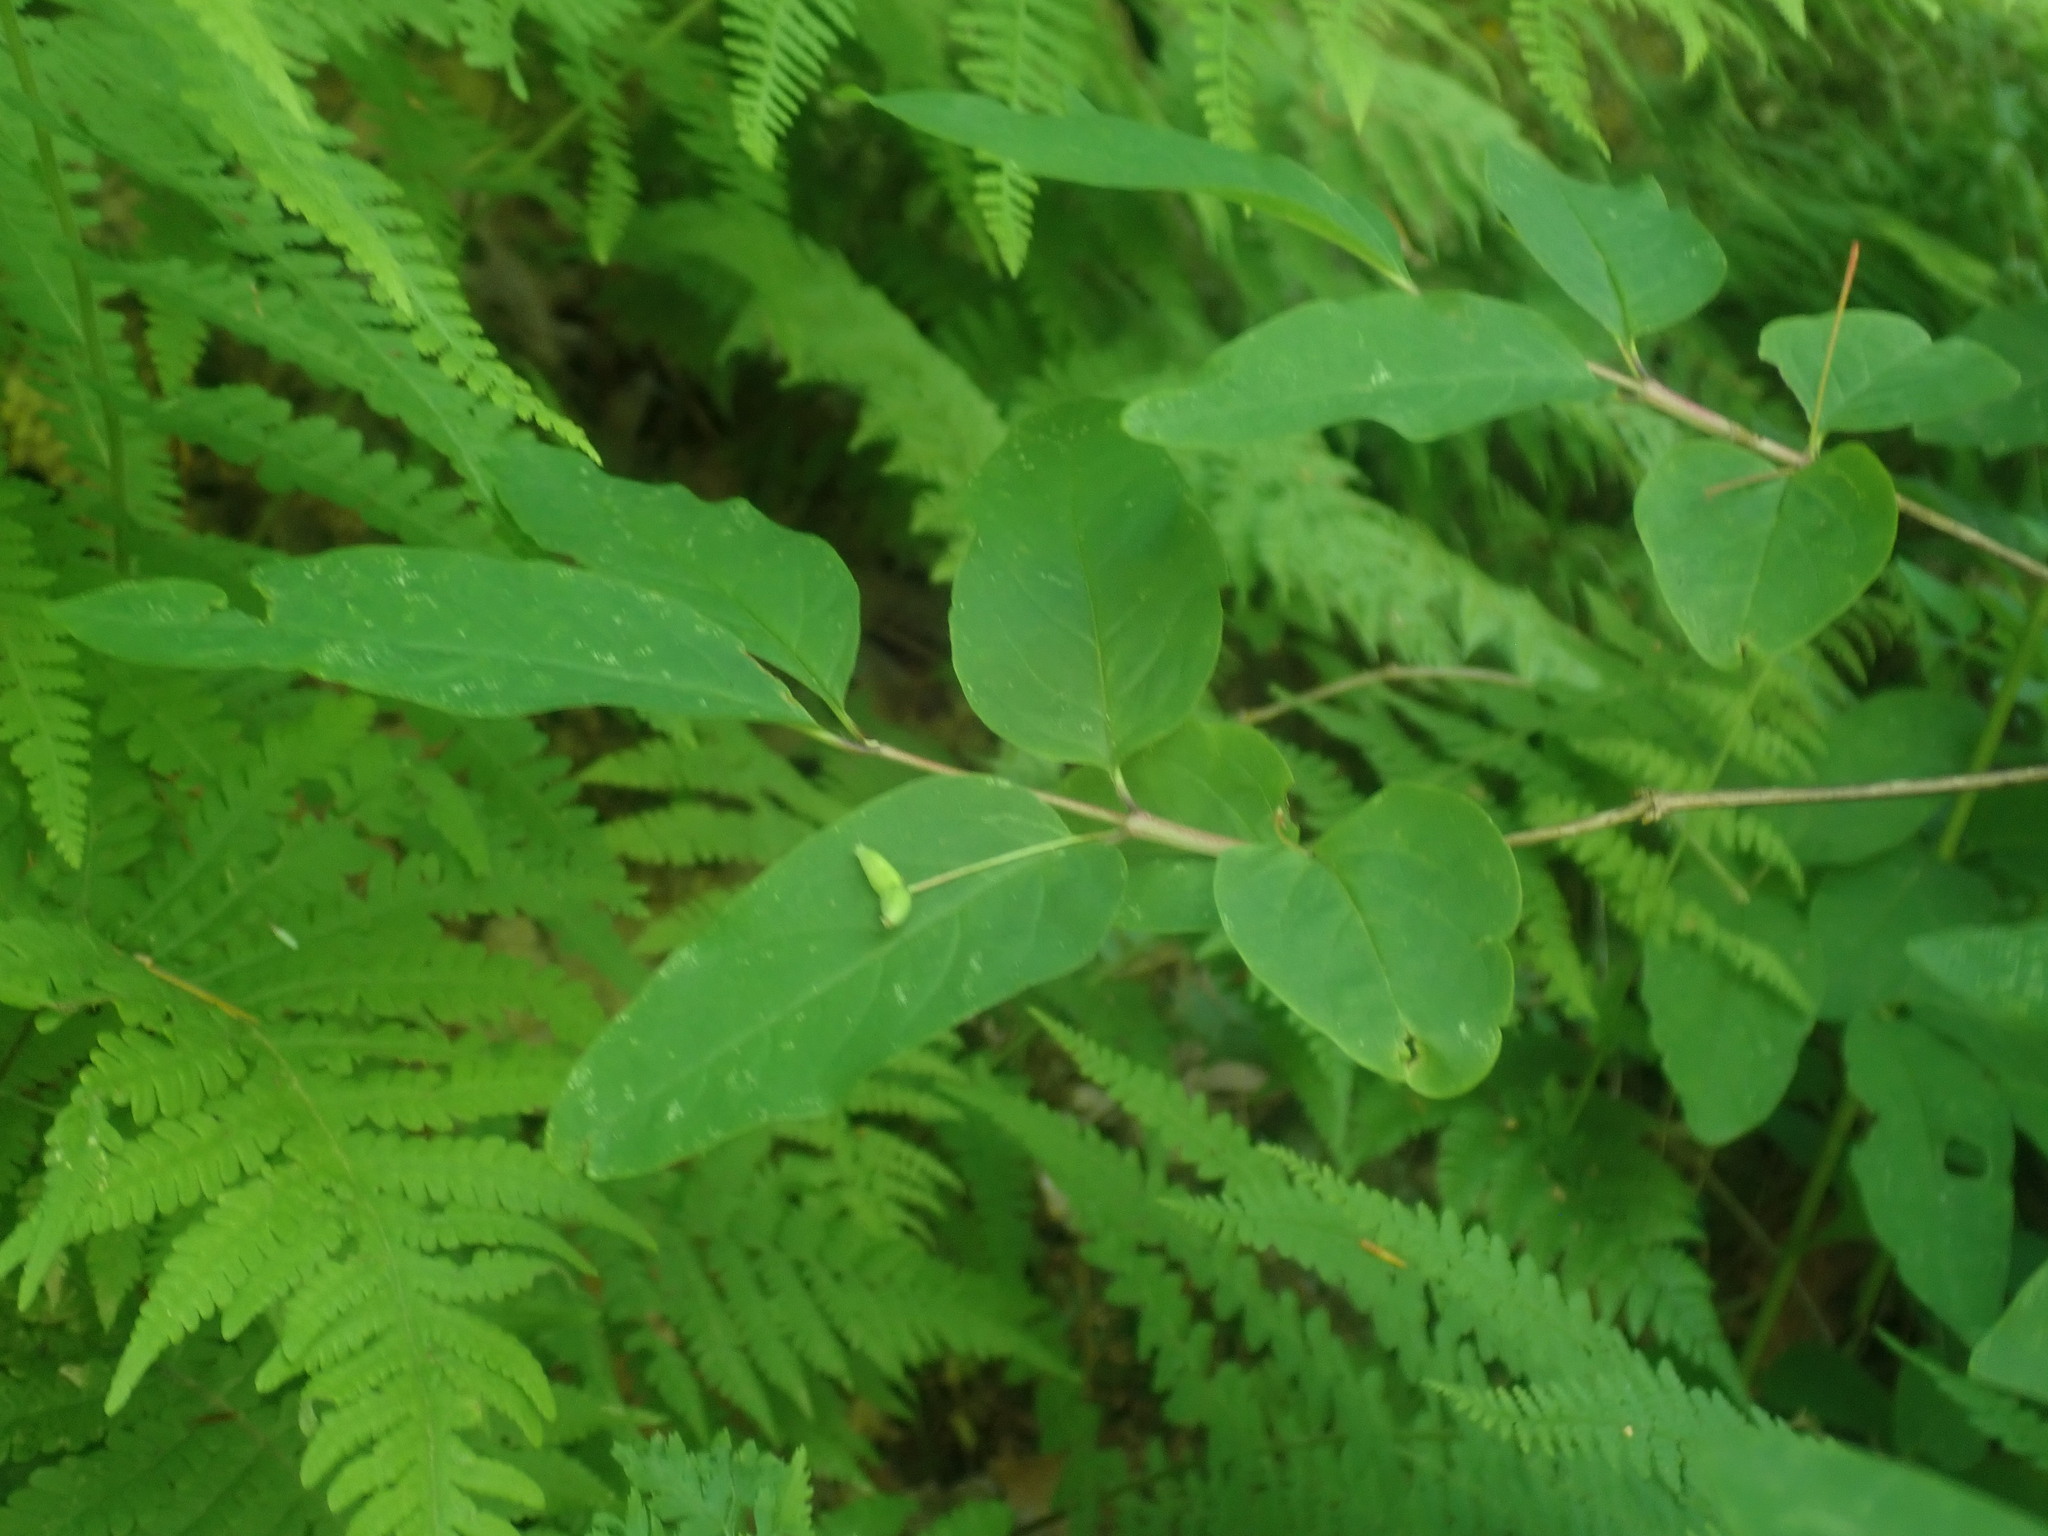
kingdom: Plantae
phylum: Tracheophyta
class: Magnoliopsida
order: Dipsacales
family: Caprifoliaceae
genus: Lonicera
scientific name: Lonicera canadensis
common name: American fly-honeysuckle
